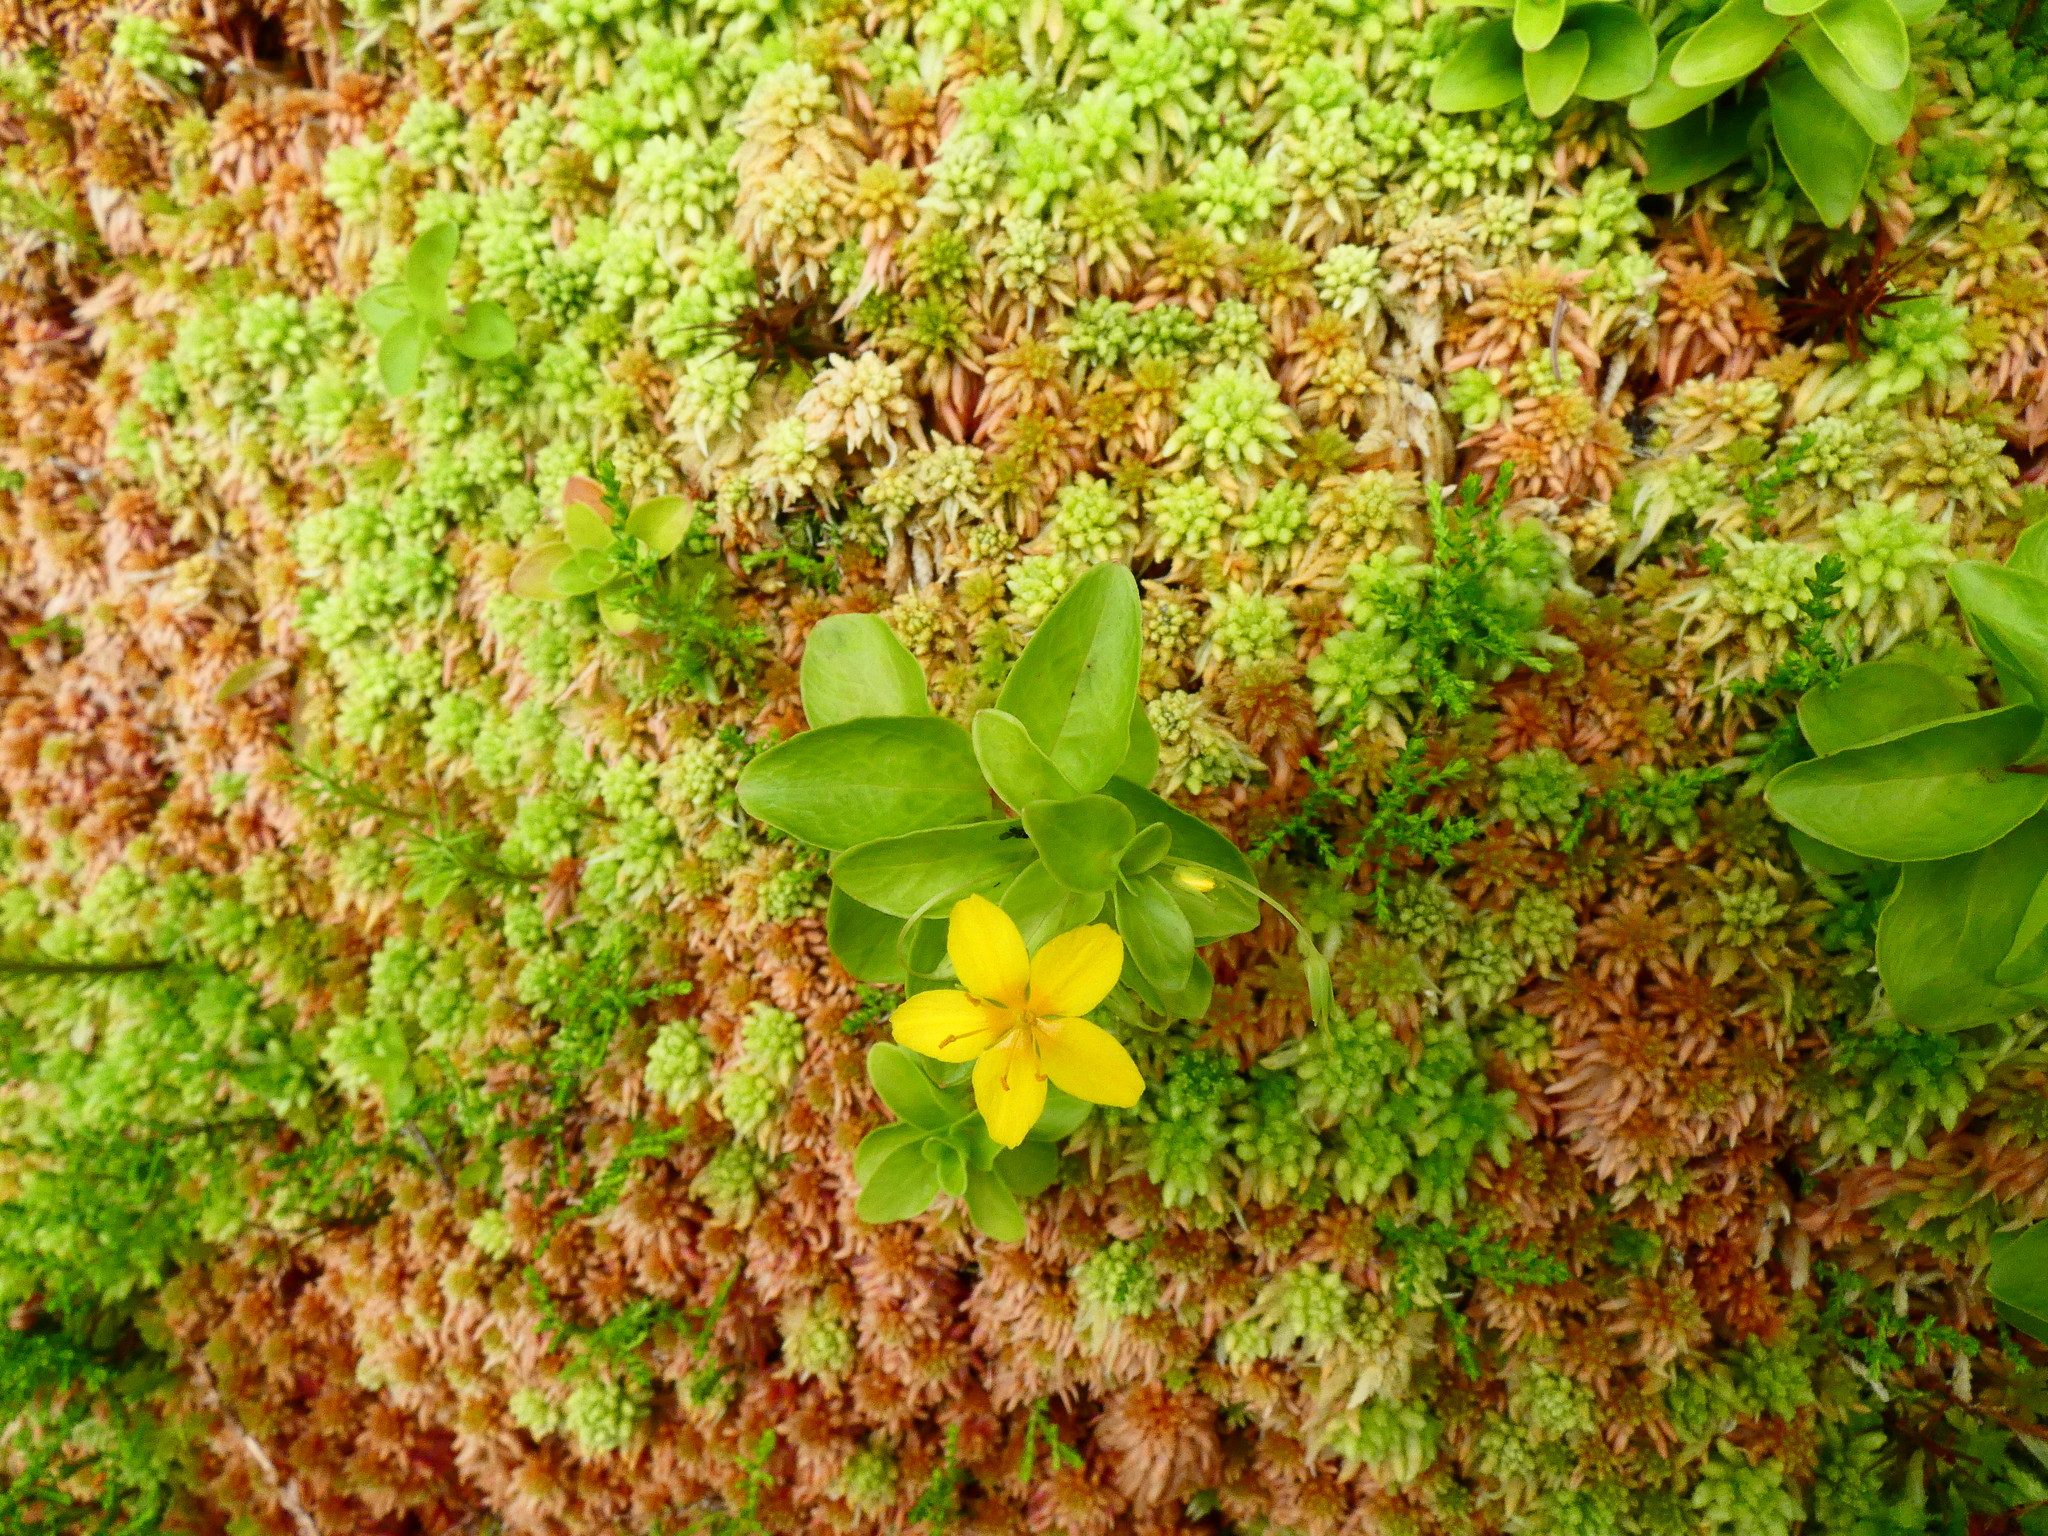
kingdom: Plantae
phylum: Tracheophyta
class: Magnoliopsida
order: Ericales
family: Primulaceae
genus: Lysimachia
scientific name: Lysimachia azorica
